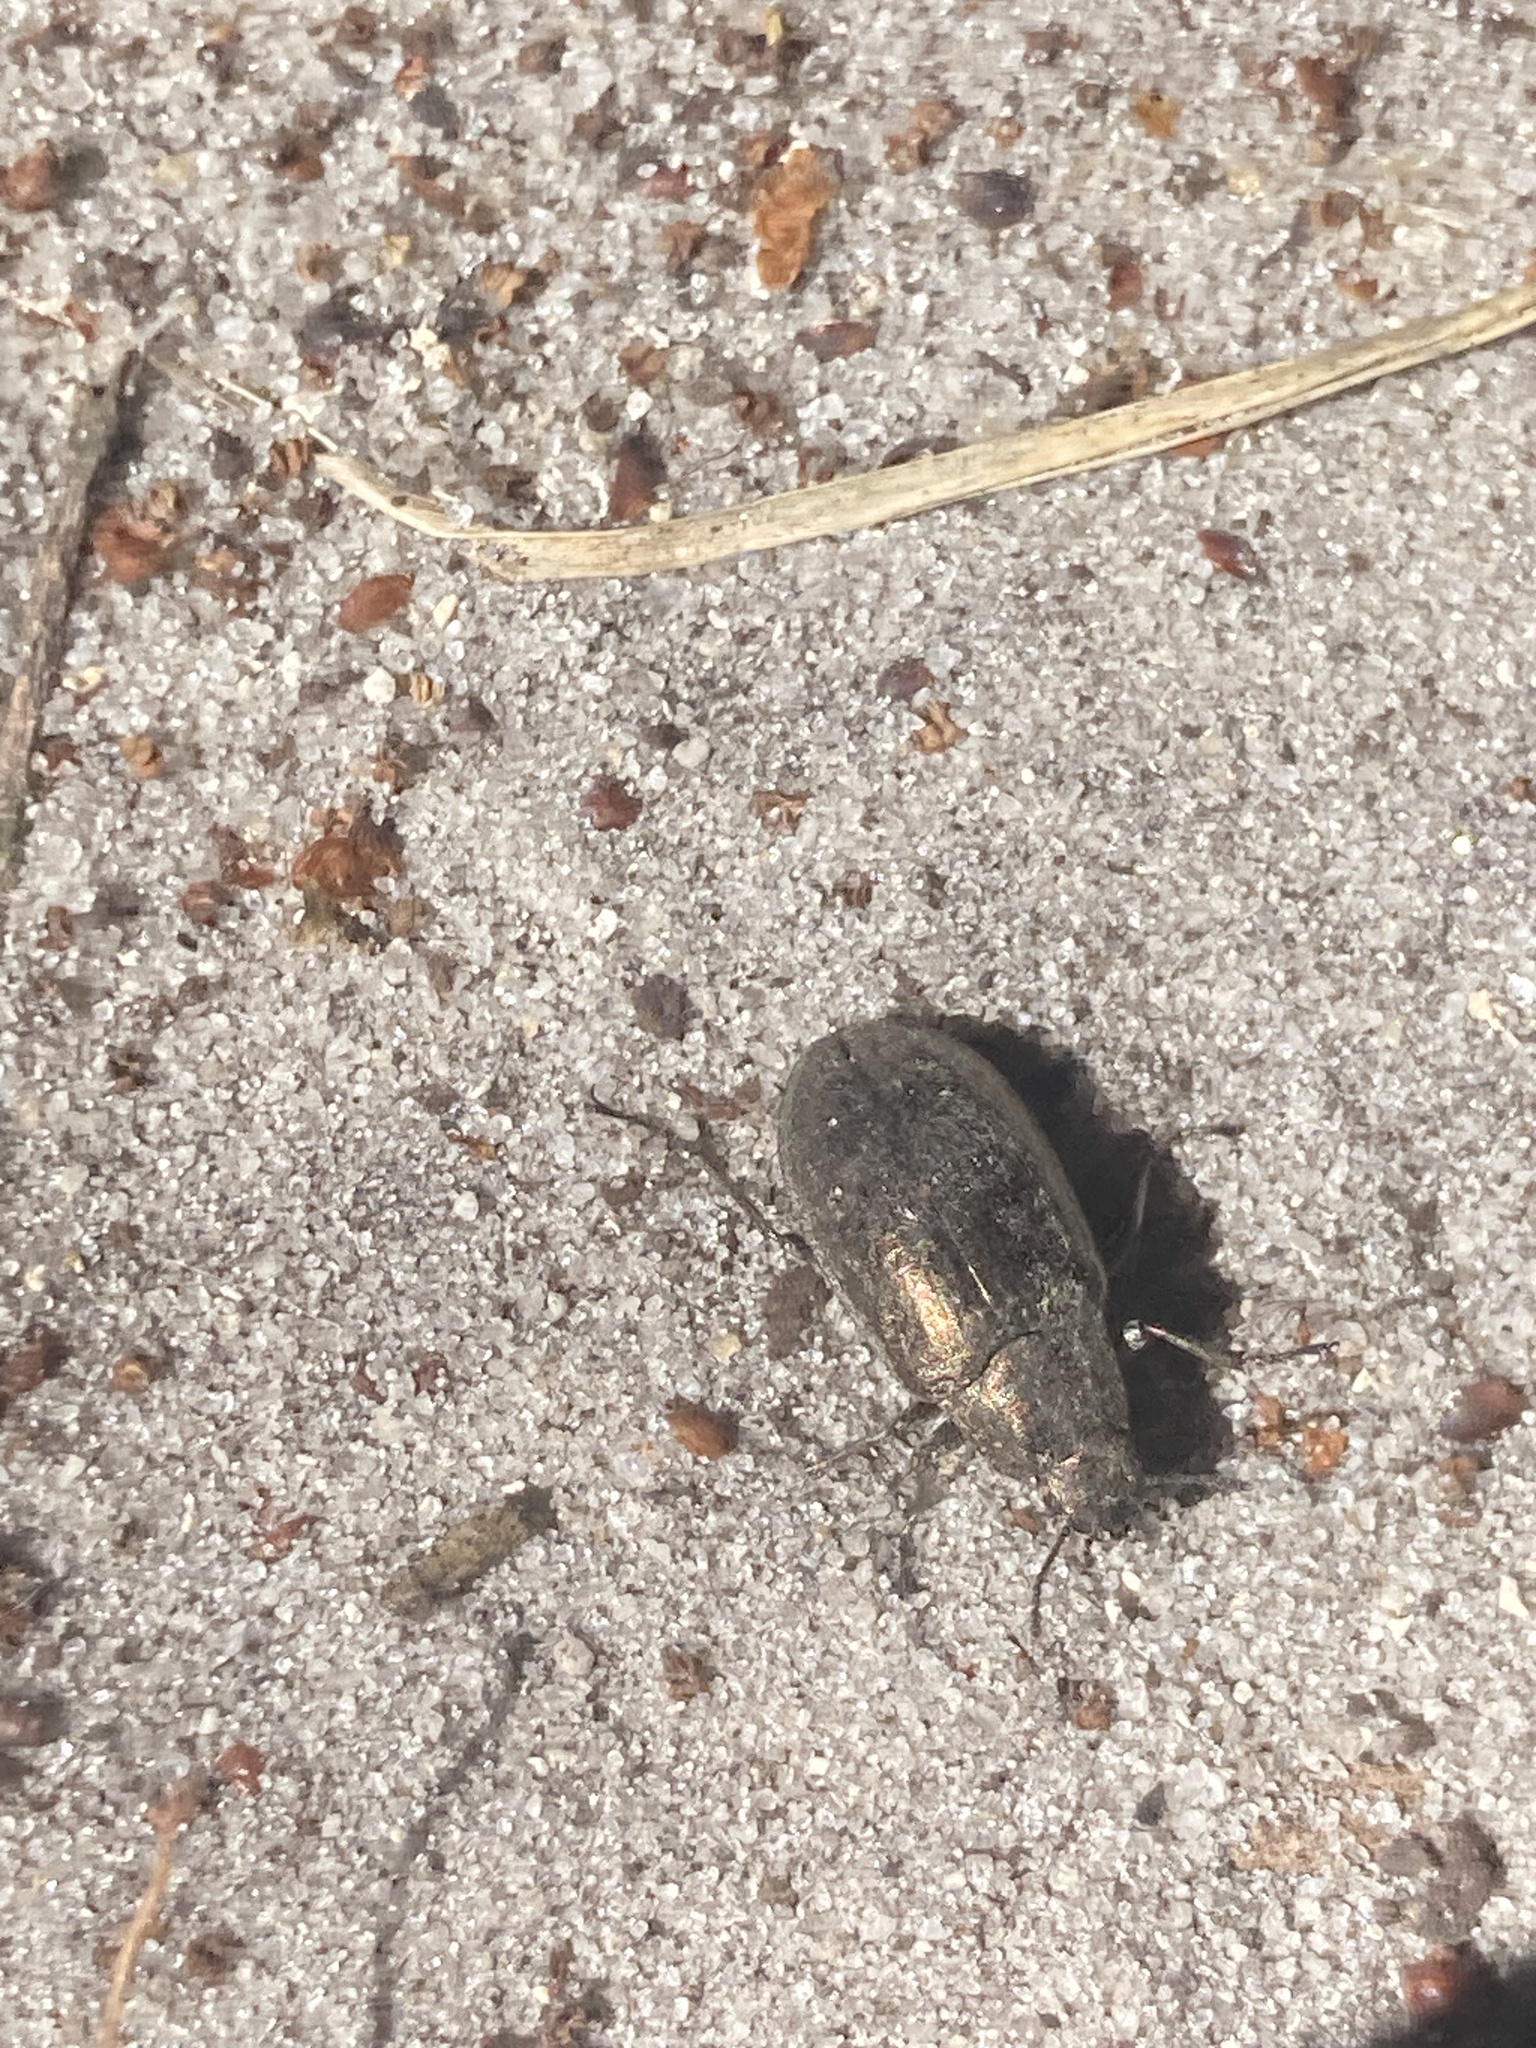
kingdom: Animalia
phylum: Arthropoda
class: Insecta
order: Coleoptera
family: Tenebrionidae
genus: Bothrotes
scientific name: Bothrotes canaliculatus
